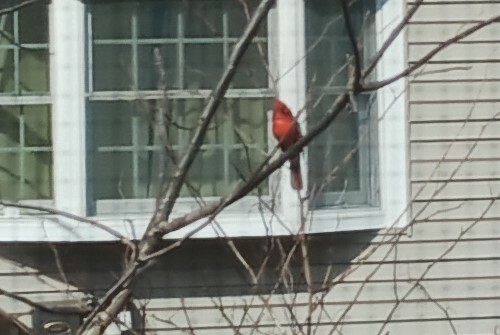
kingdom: Animalia
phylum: Chordata
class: Aves
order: Passeriformes
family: Cardinalidae
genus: Cardinalis
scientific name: Cardinalis cardinalis
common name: Northern cardinal
